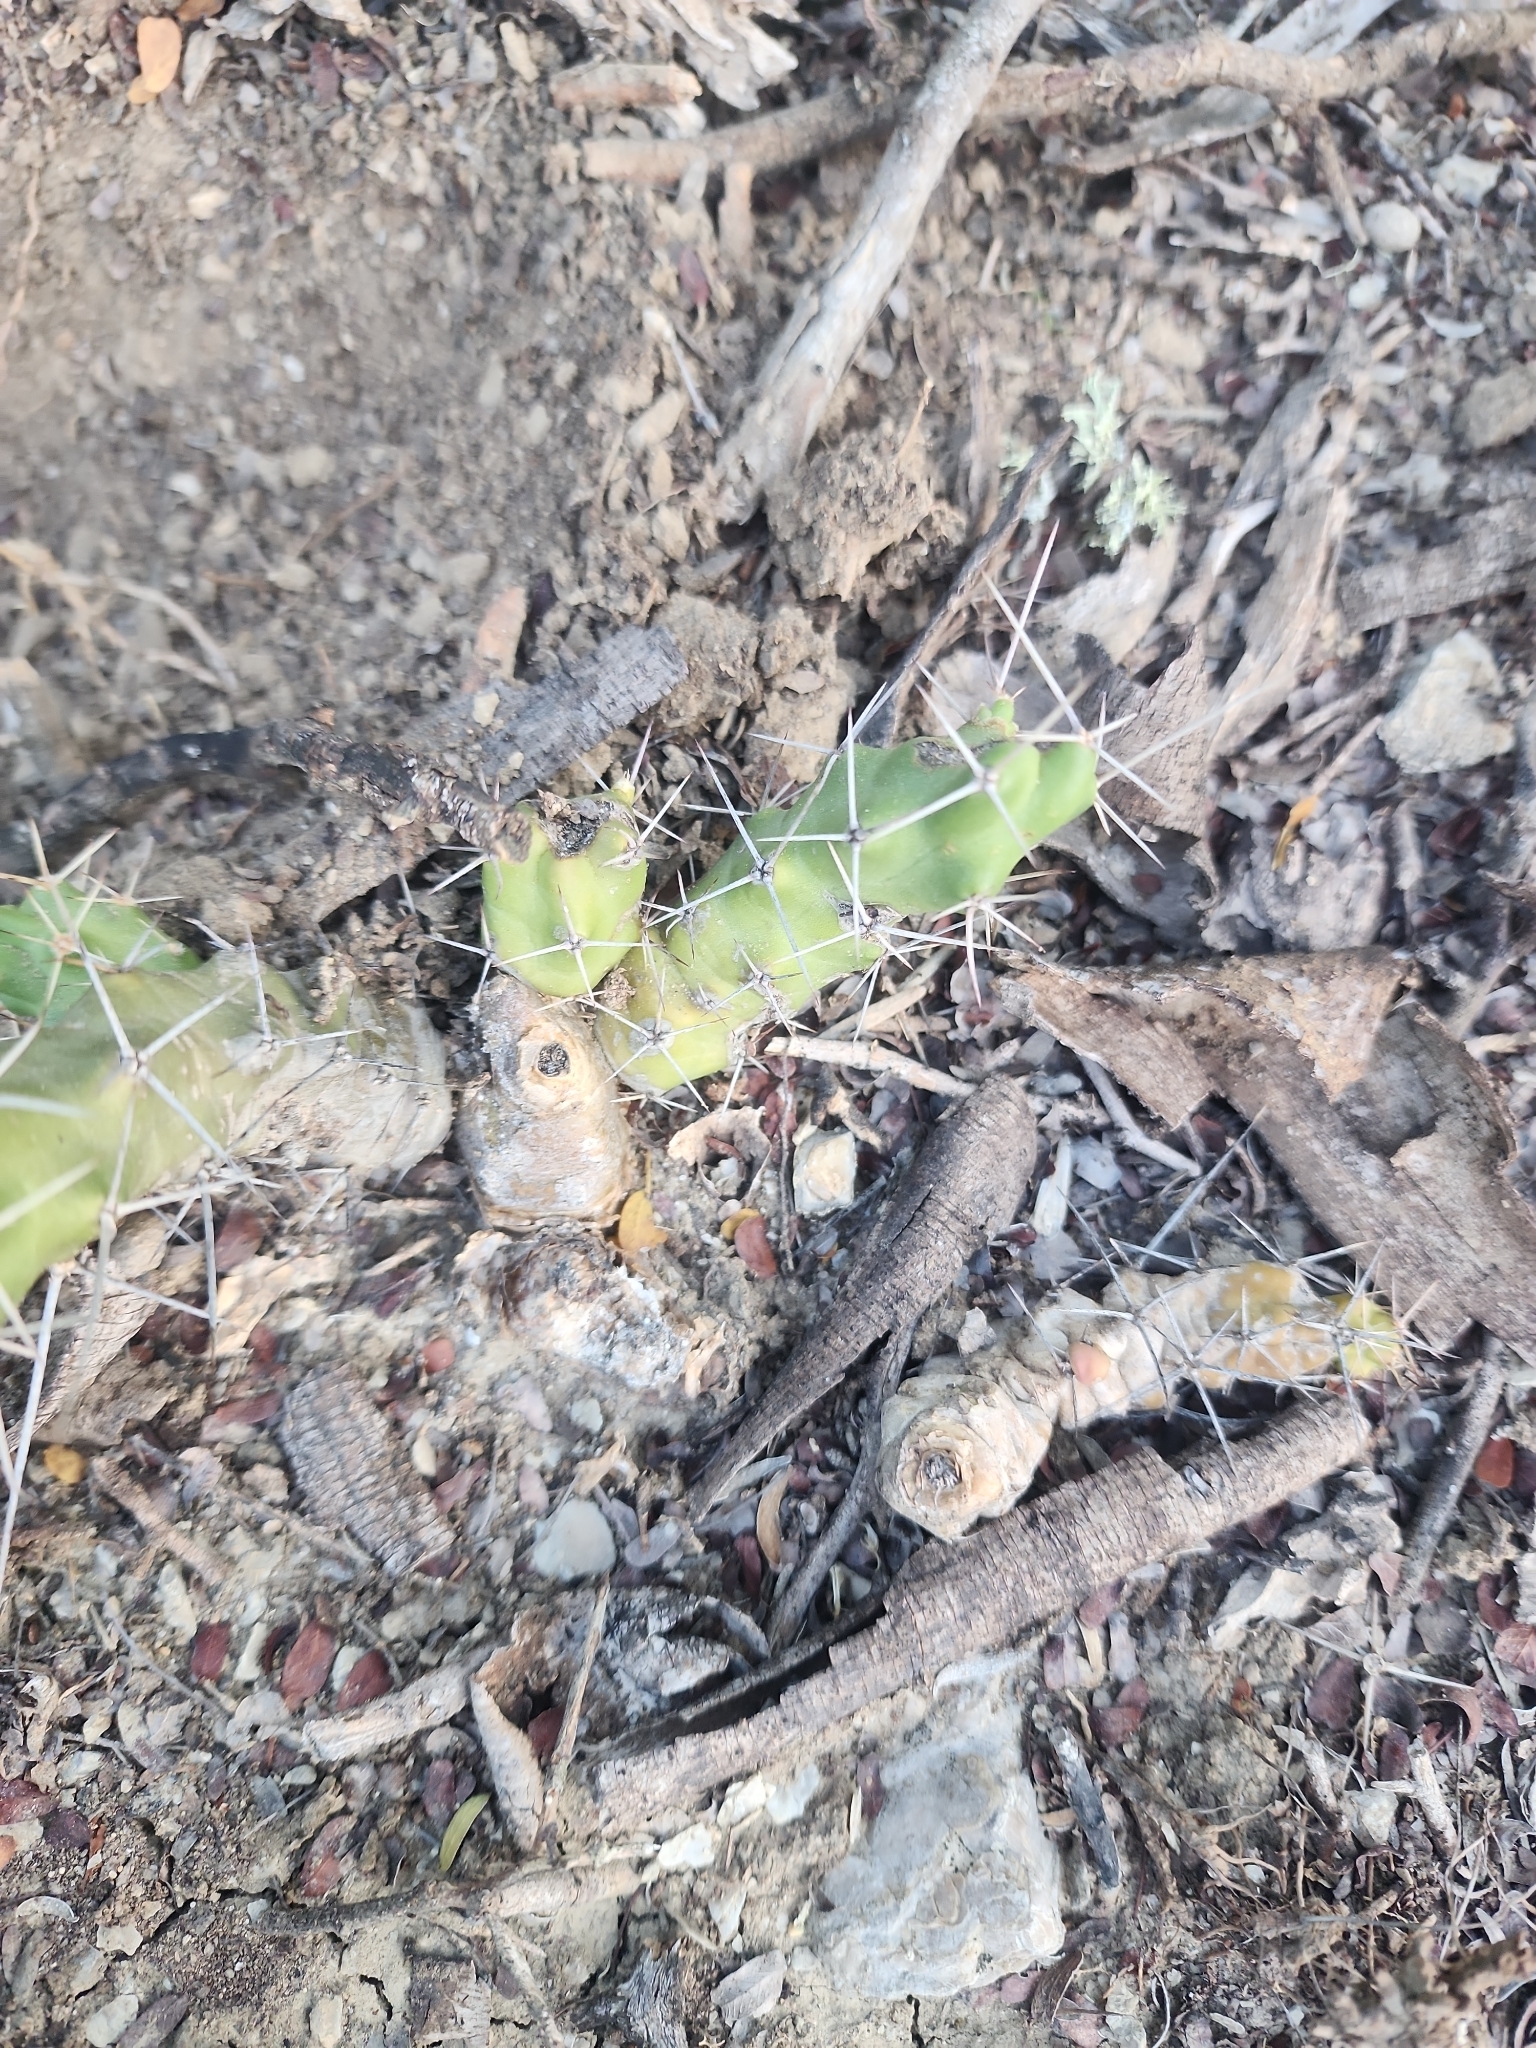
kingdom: Plantae
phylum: Tracheophyta
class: Magnoliopsida
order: Caryophyllales
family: Cactaceae
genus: Echinocereus
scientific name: Echinocereus pentalophus
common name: Ladyfinger cactus
